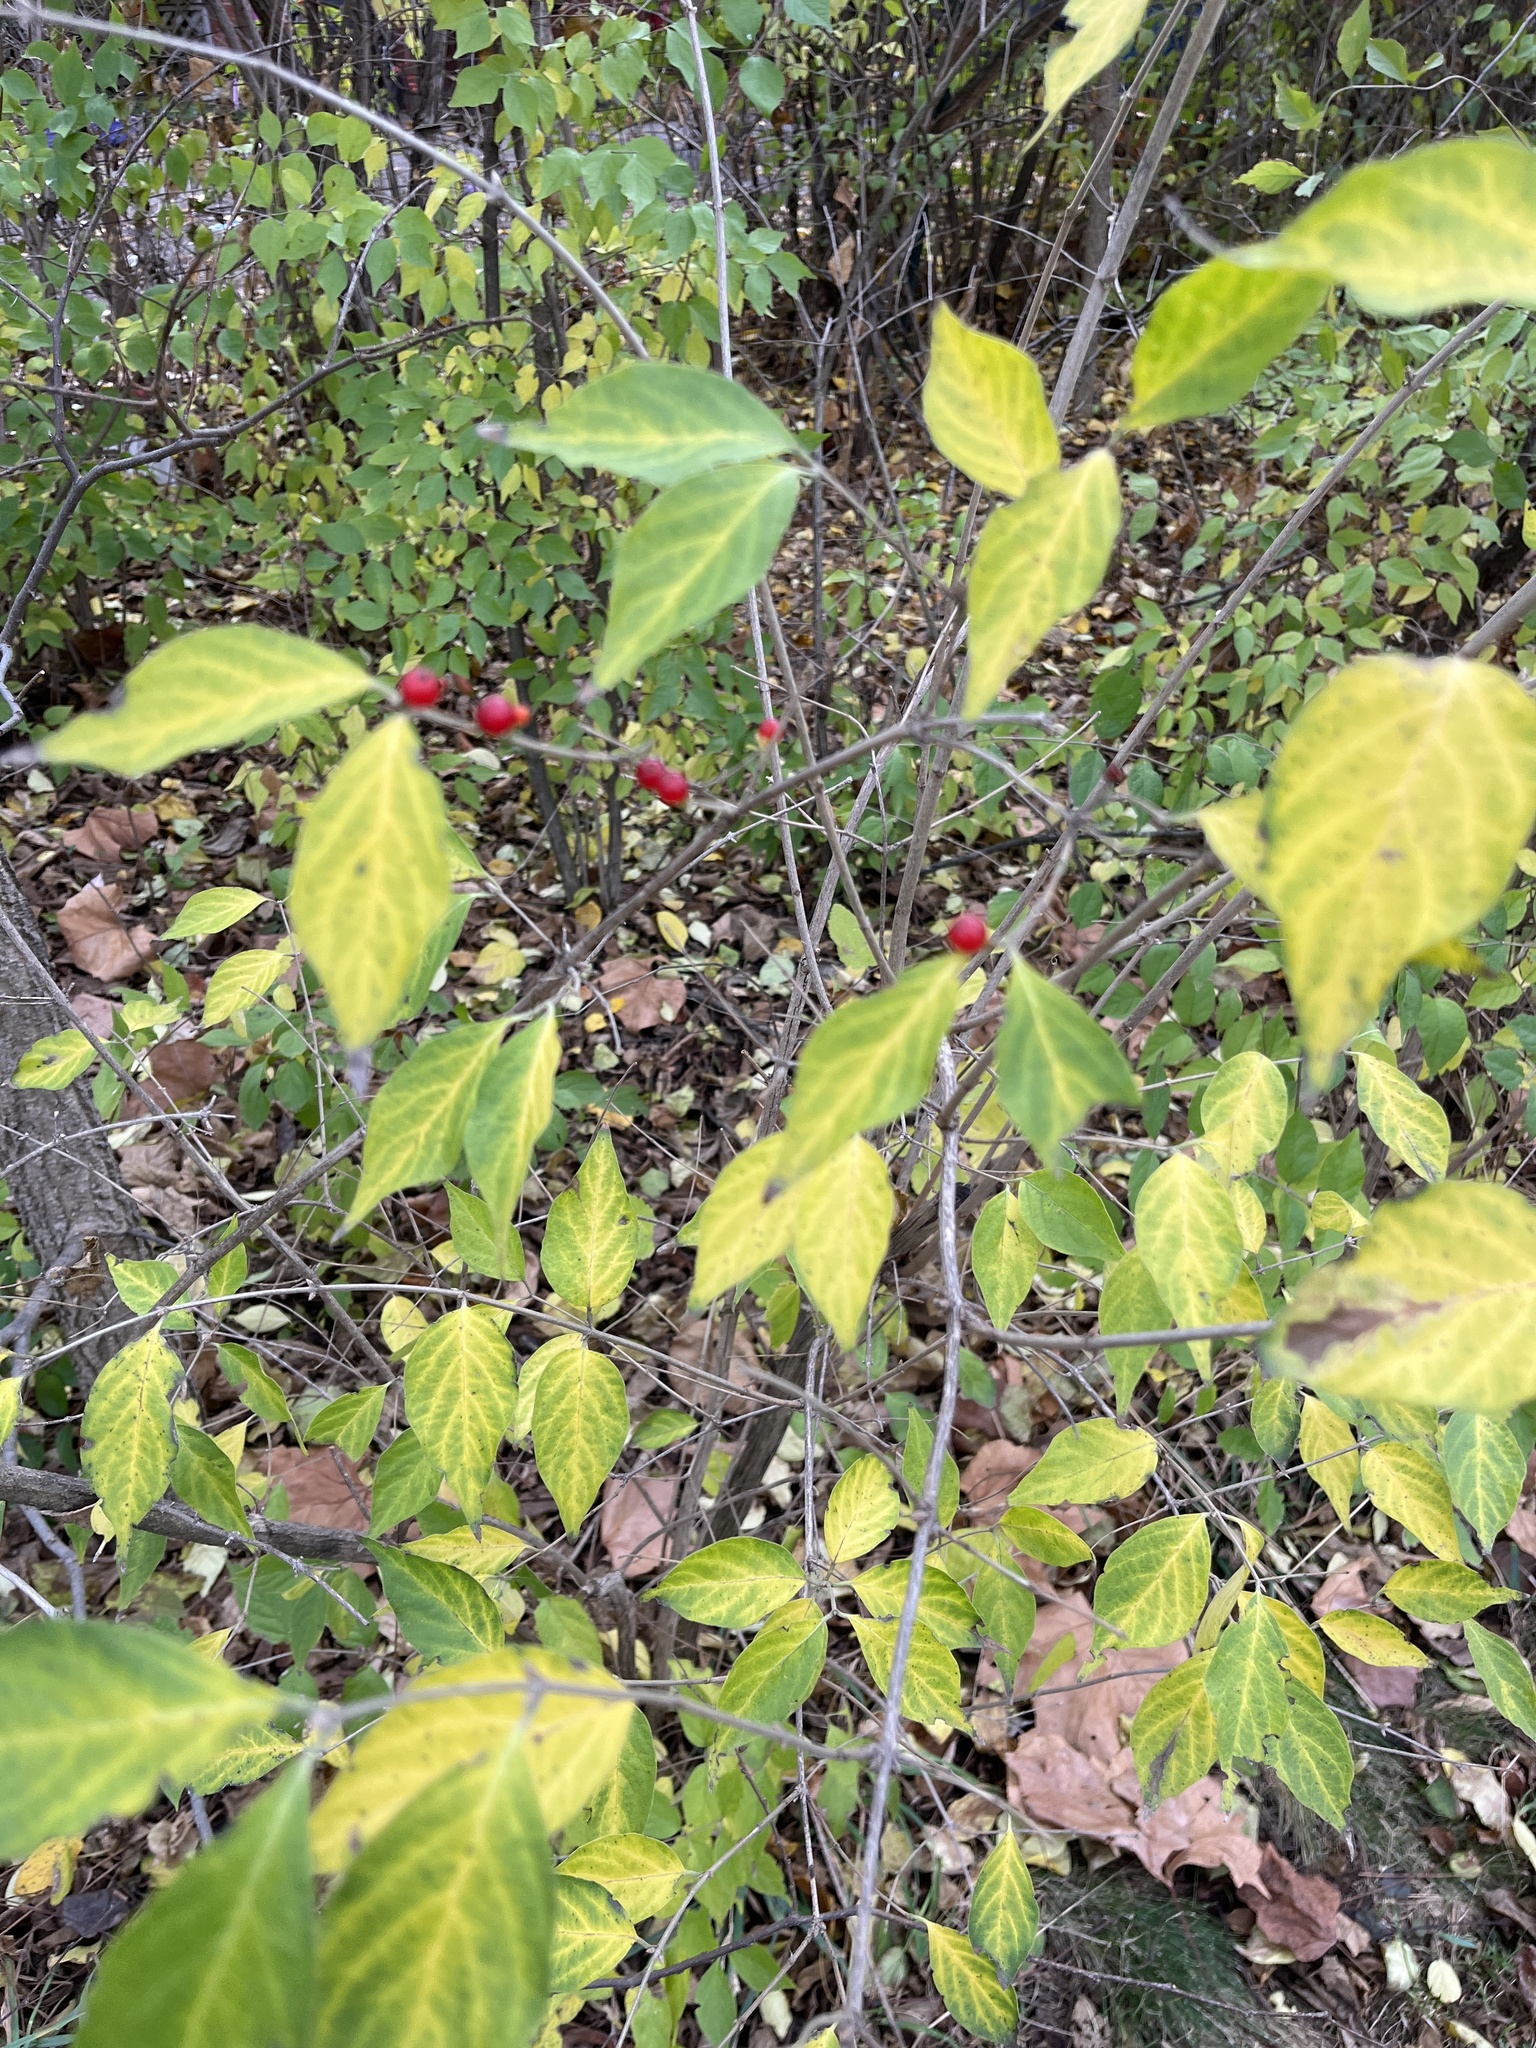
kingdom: Plantae
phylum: Tracheophyta
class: Magnoliopsida
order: Dipsacales
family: Caprifoliaceae
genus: Lonicera
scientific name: Lonicera maackii
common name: Amur honeysuckle
